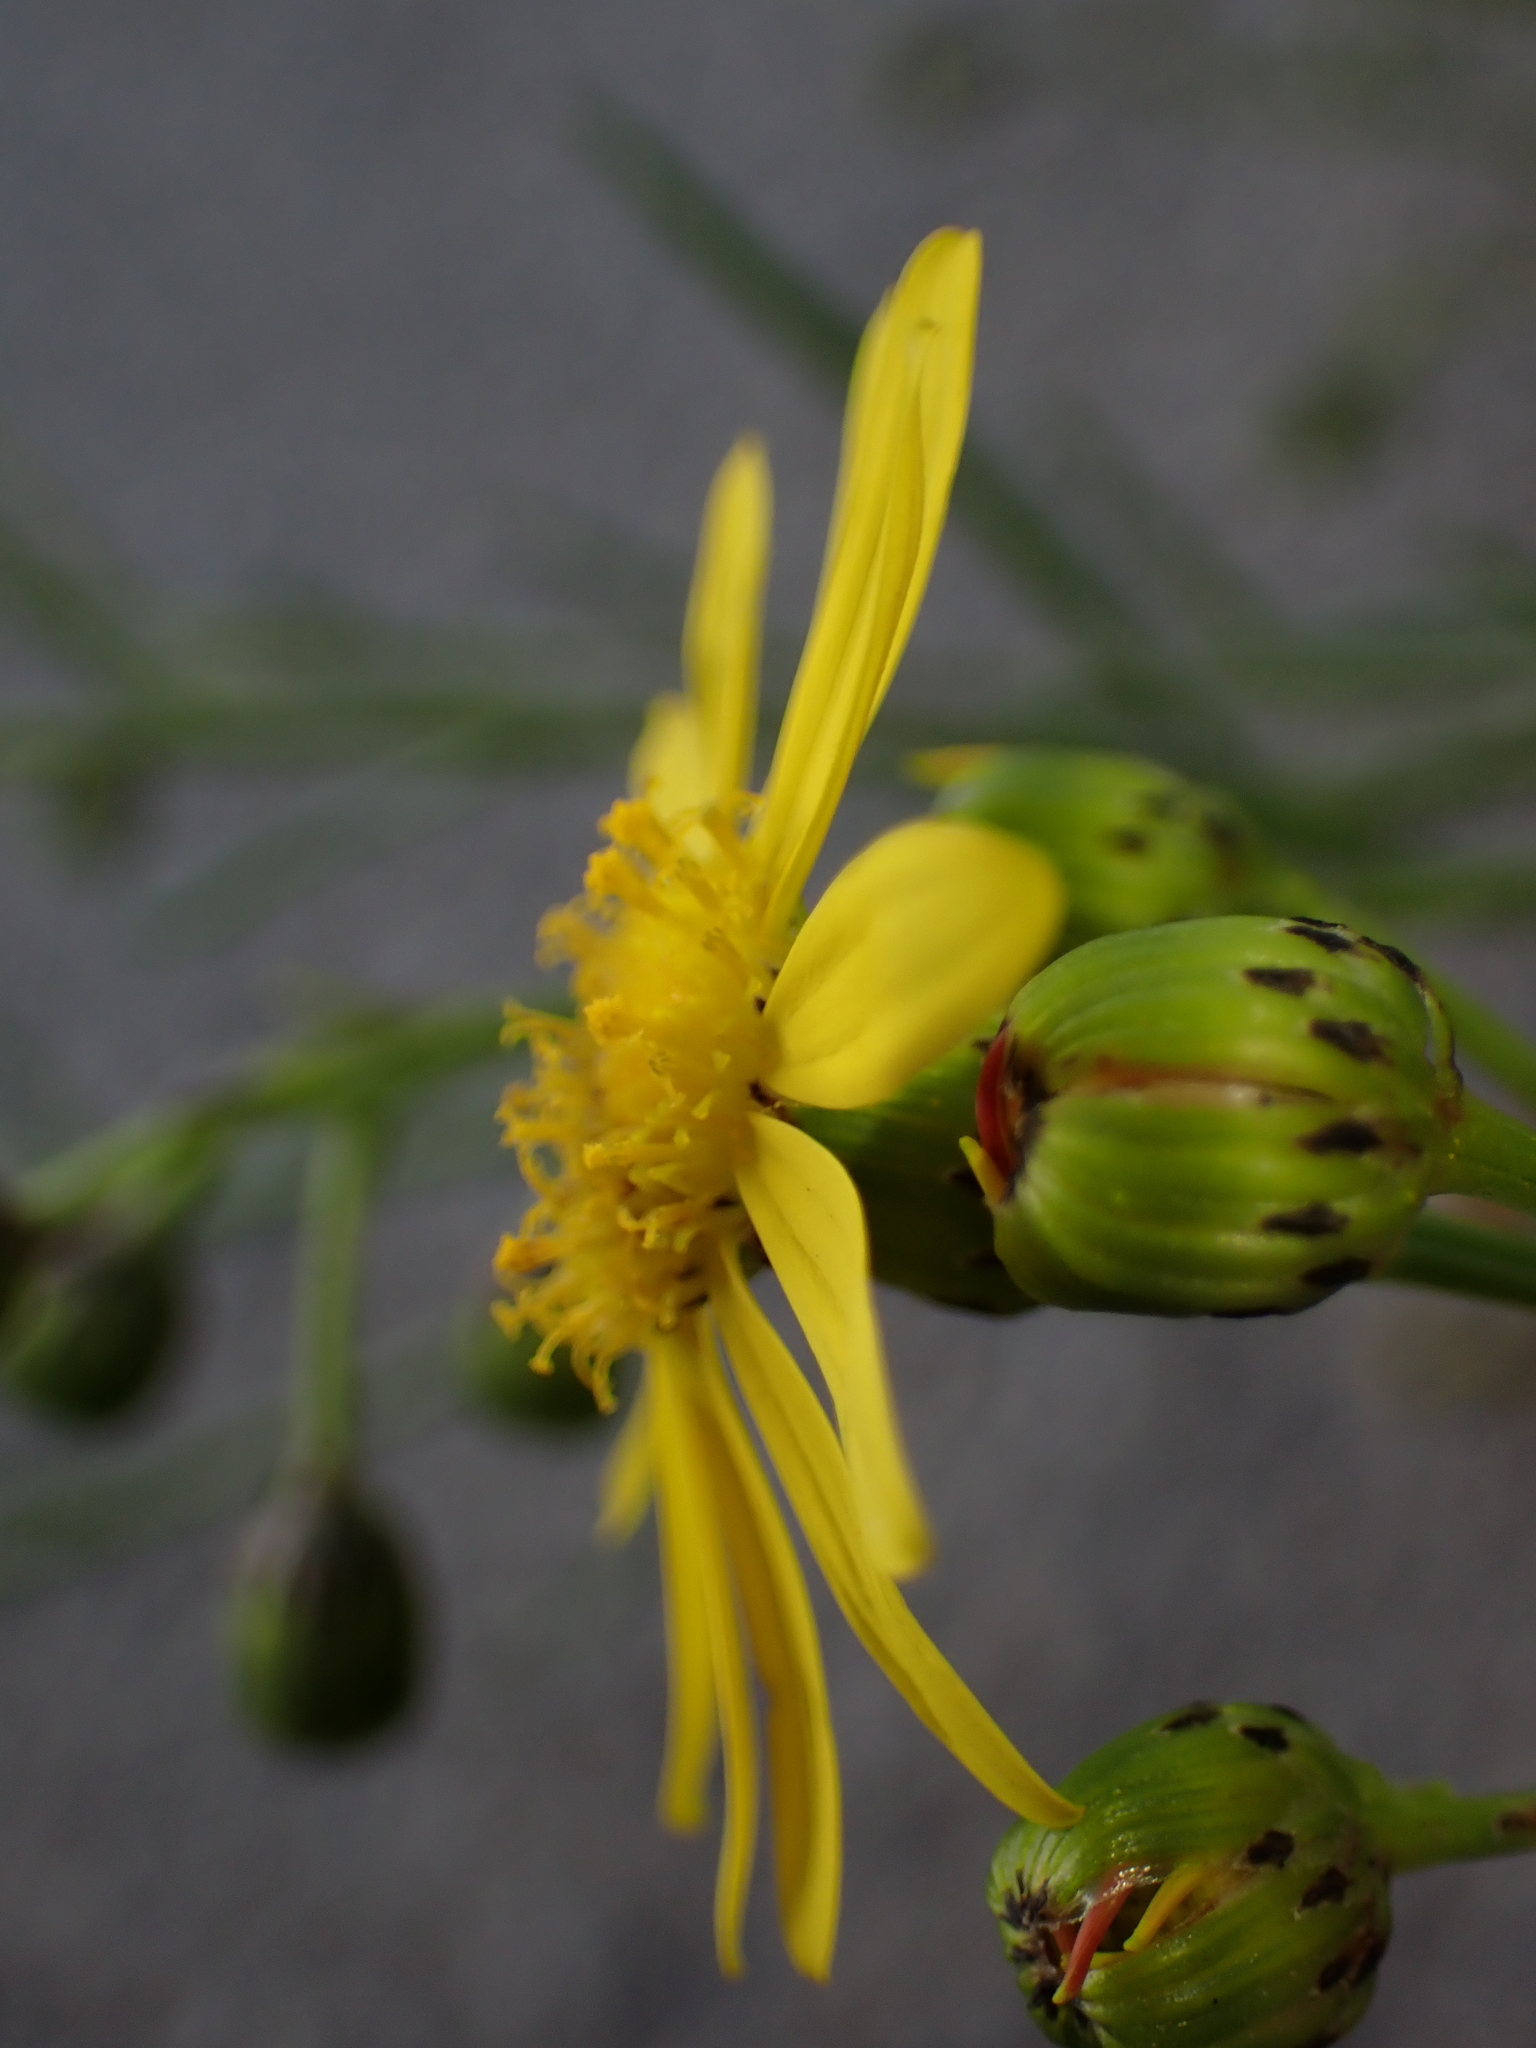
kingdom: Plantae
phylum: Tracheophyta
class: Magnoliopsida
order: Asterales
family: Asteraceae
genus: Senecio
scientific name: Senecio inaequidens
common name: Narrow-leaved ragwort
